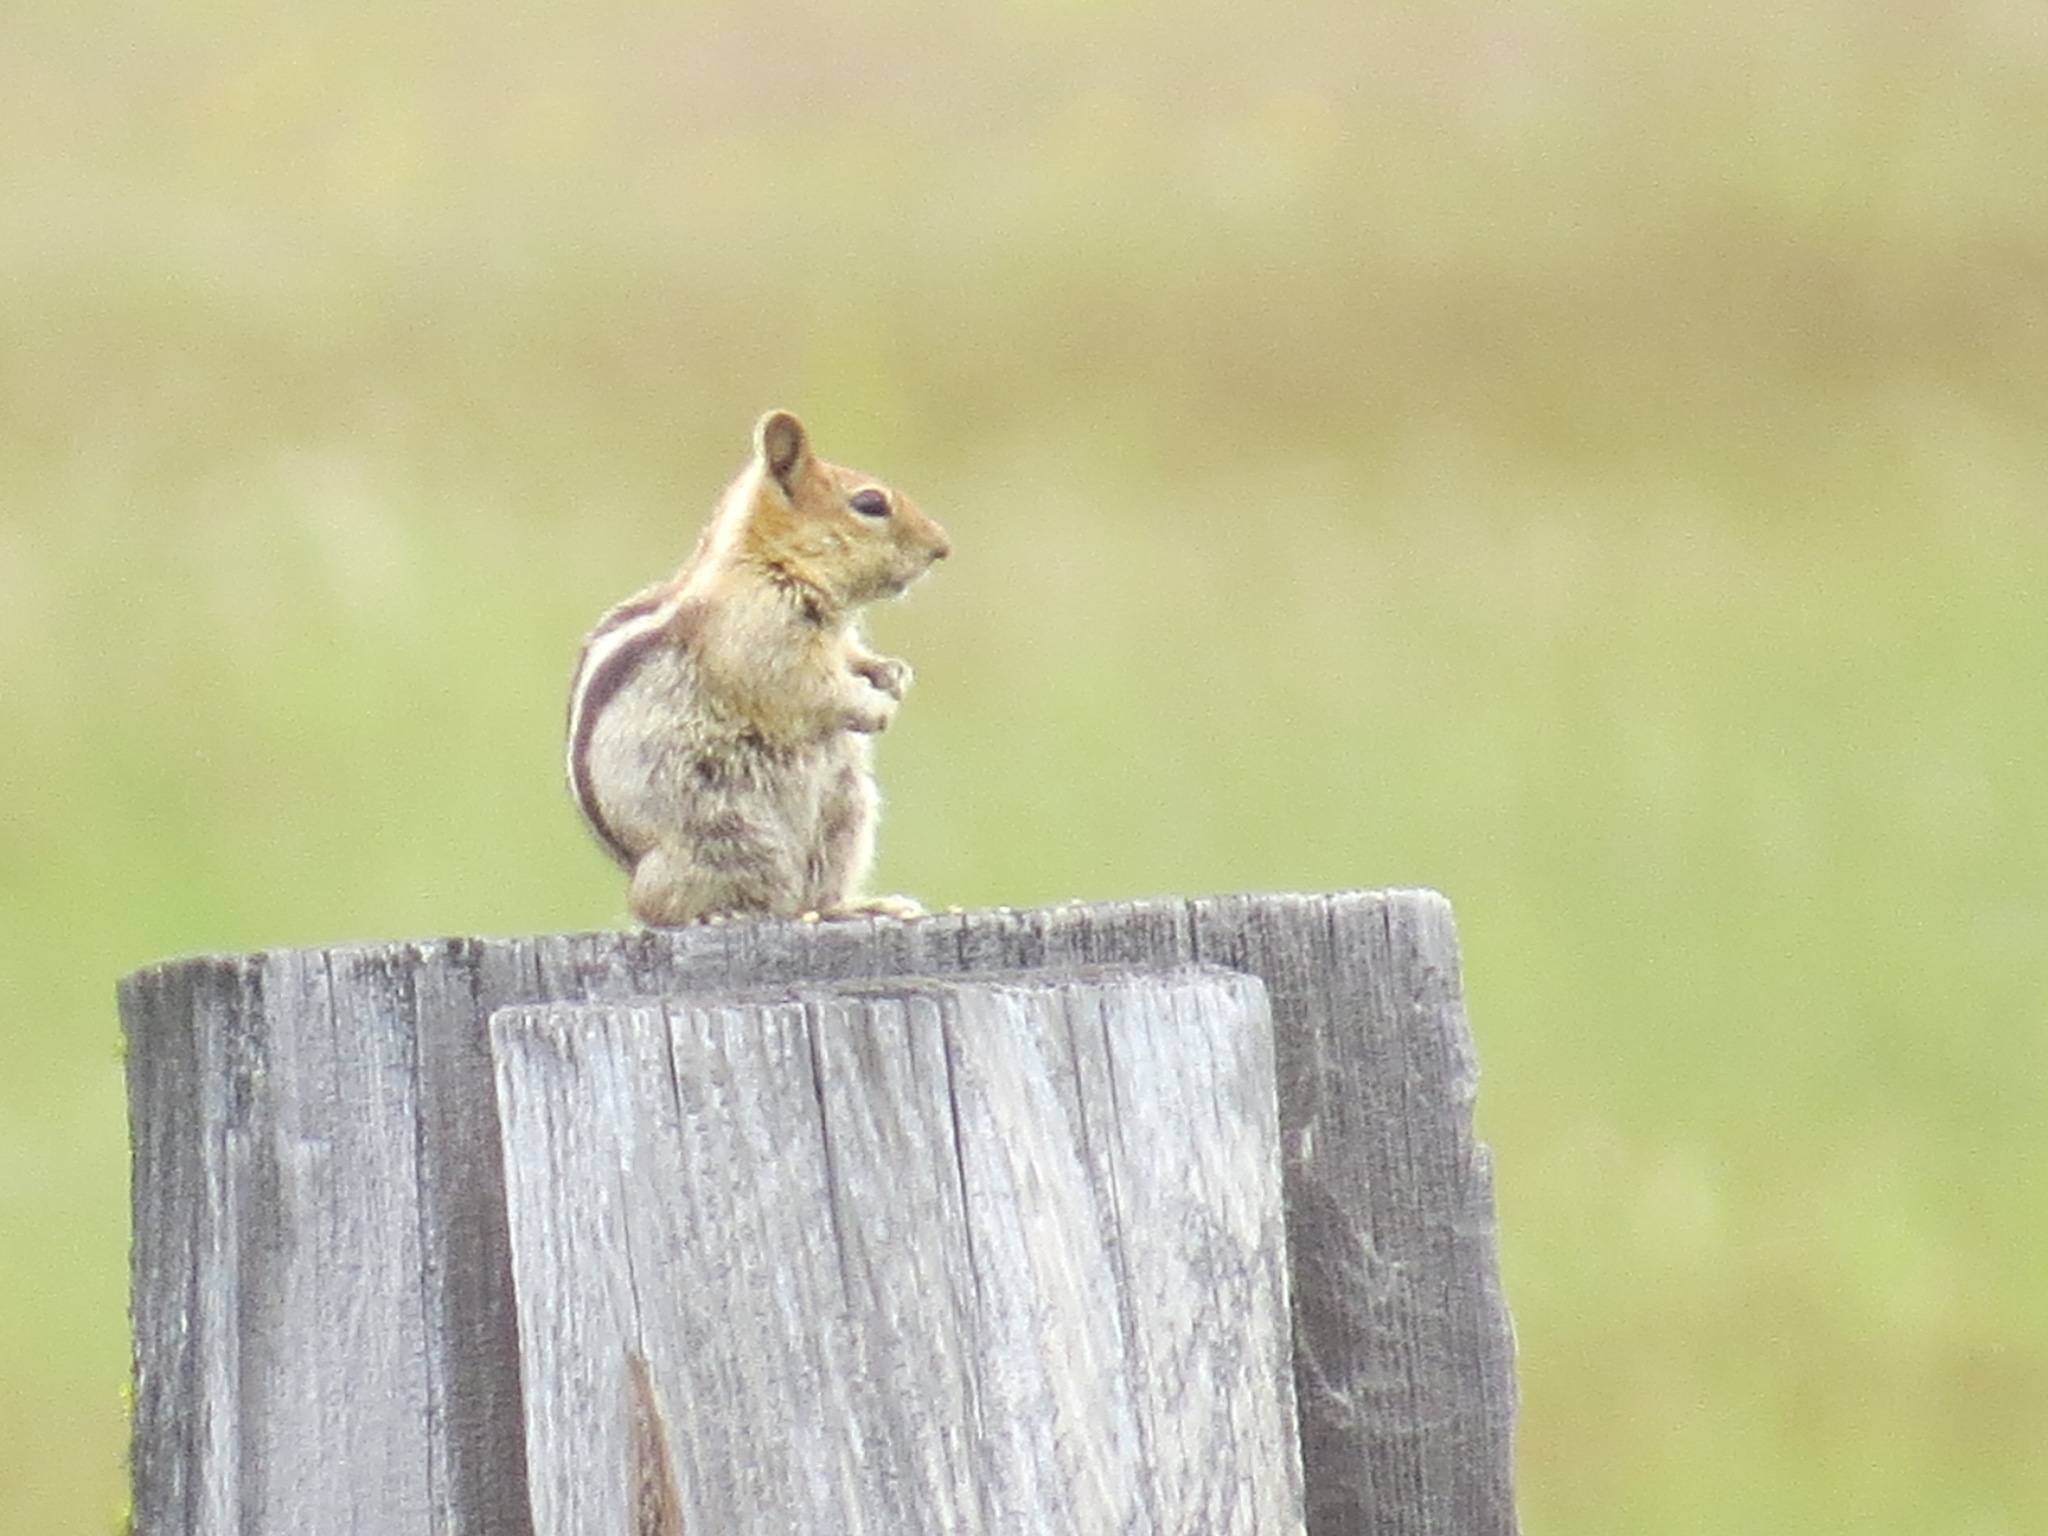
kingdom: Animalia
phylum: Chordata
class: Mammalia
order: Rodentia
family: Sciuridae
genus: Callospermophilus
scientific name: Callospermophilus lateralis
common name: Golden-mantled ground squirrel
